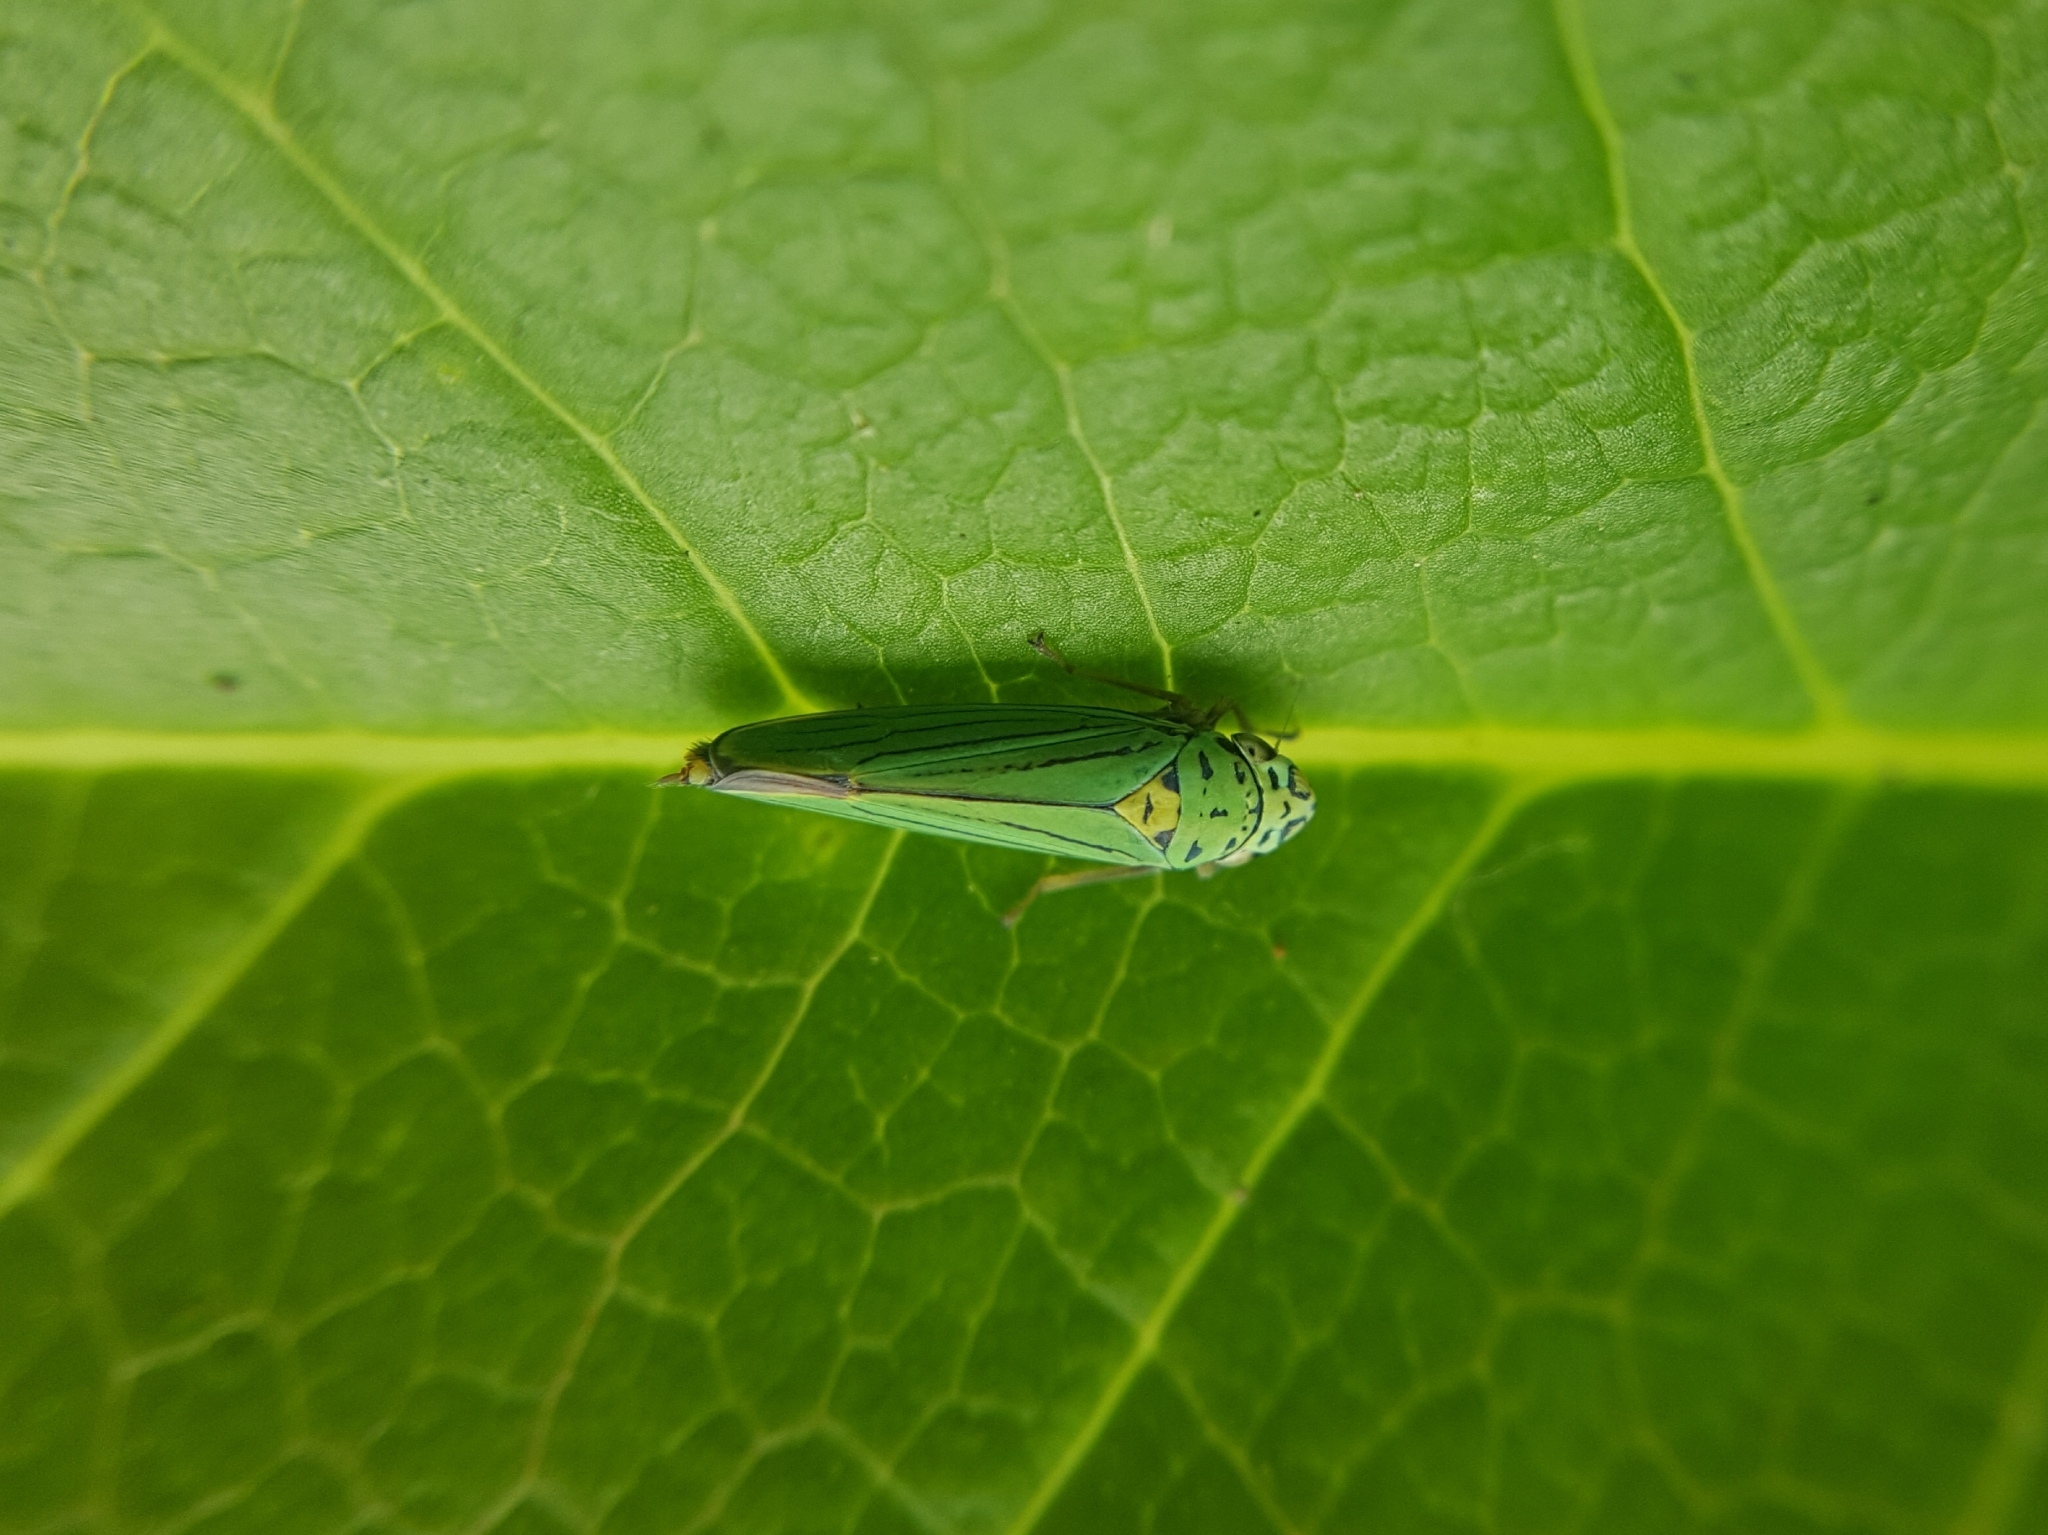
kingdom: Animalia
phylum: Arthropoda
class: Insecta
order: Hemiptera
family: Cicadellidae
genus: Graphocephala
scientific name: Graphocephala atropunctata
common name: Blue-green sharpshooter
